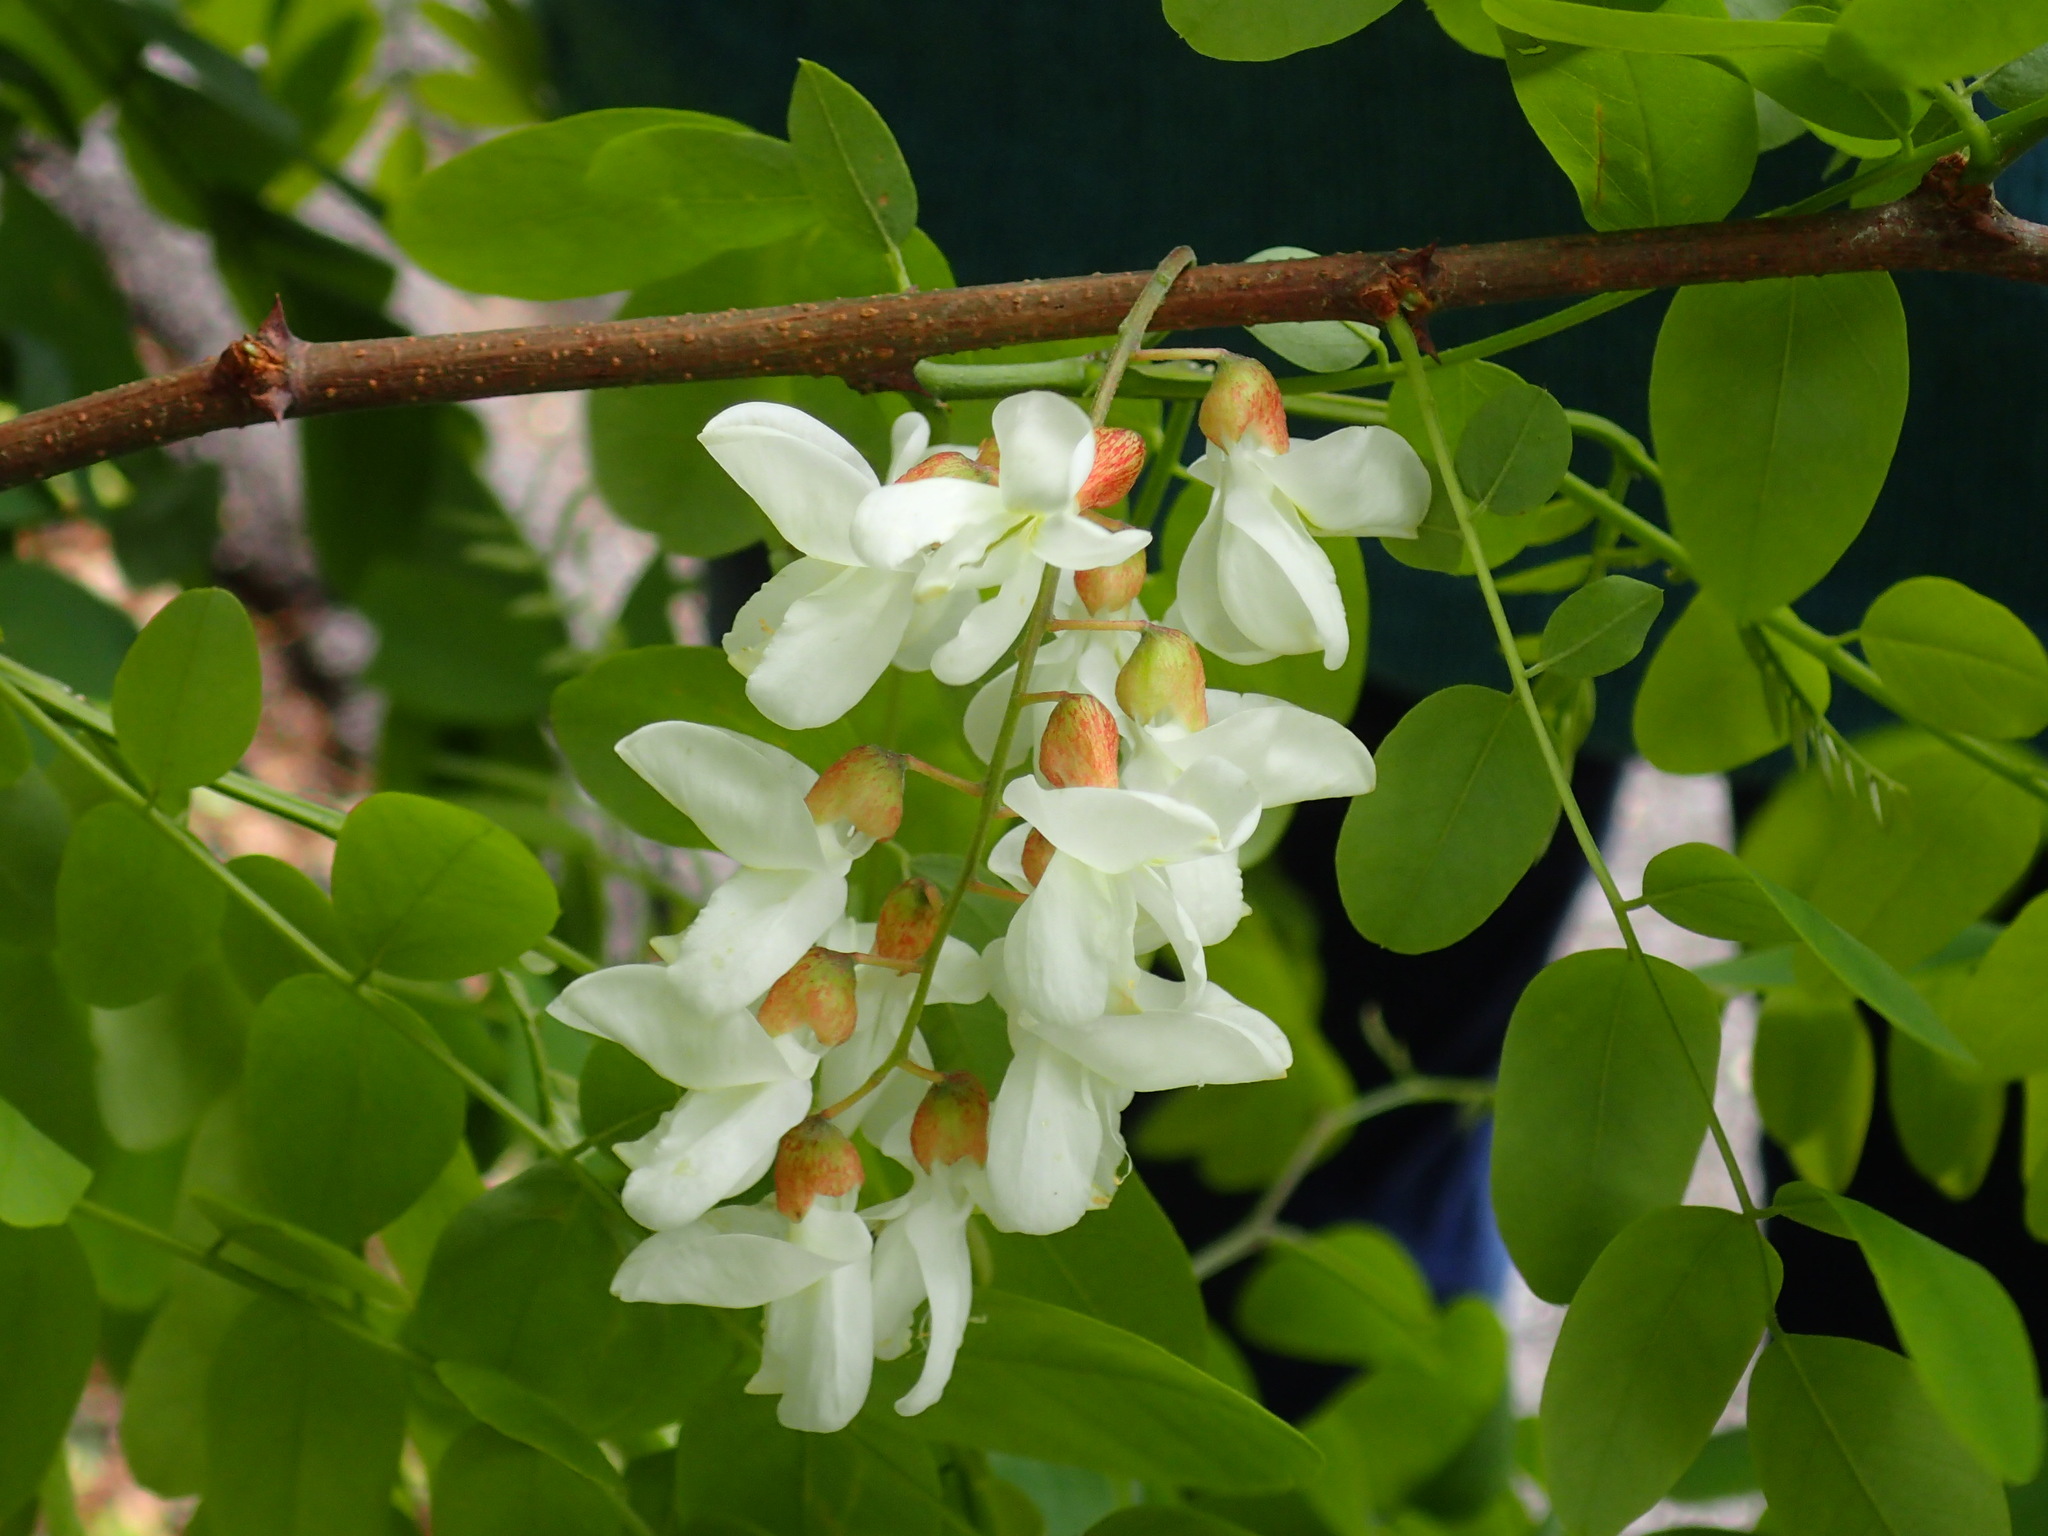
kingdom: Plantae
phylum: Tracheophyta
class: Magnoliopsida
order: Fabales
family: Fabaceae
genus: Robinia
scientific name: Robinia pseudoacacia
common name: Black locust
